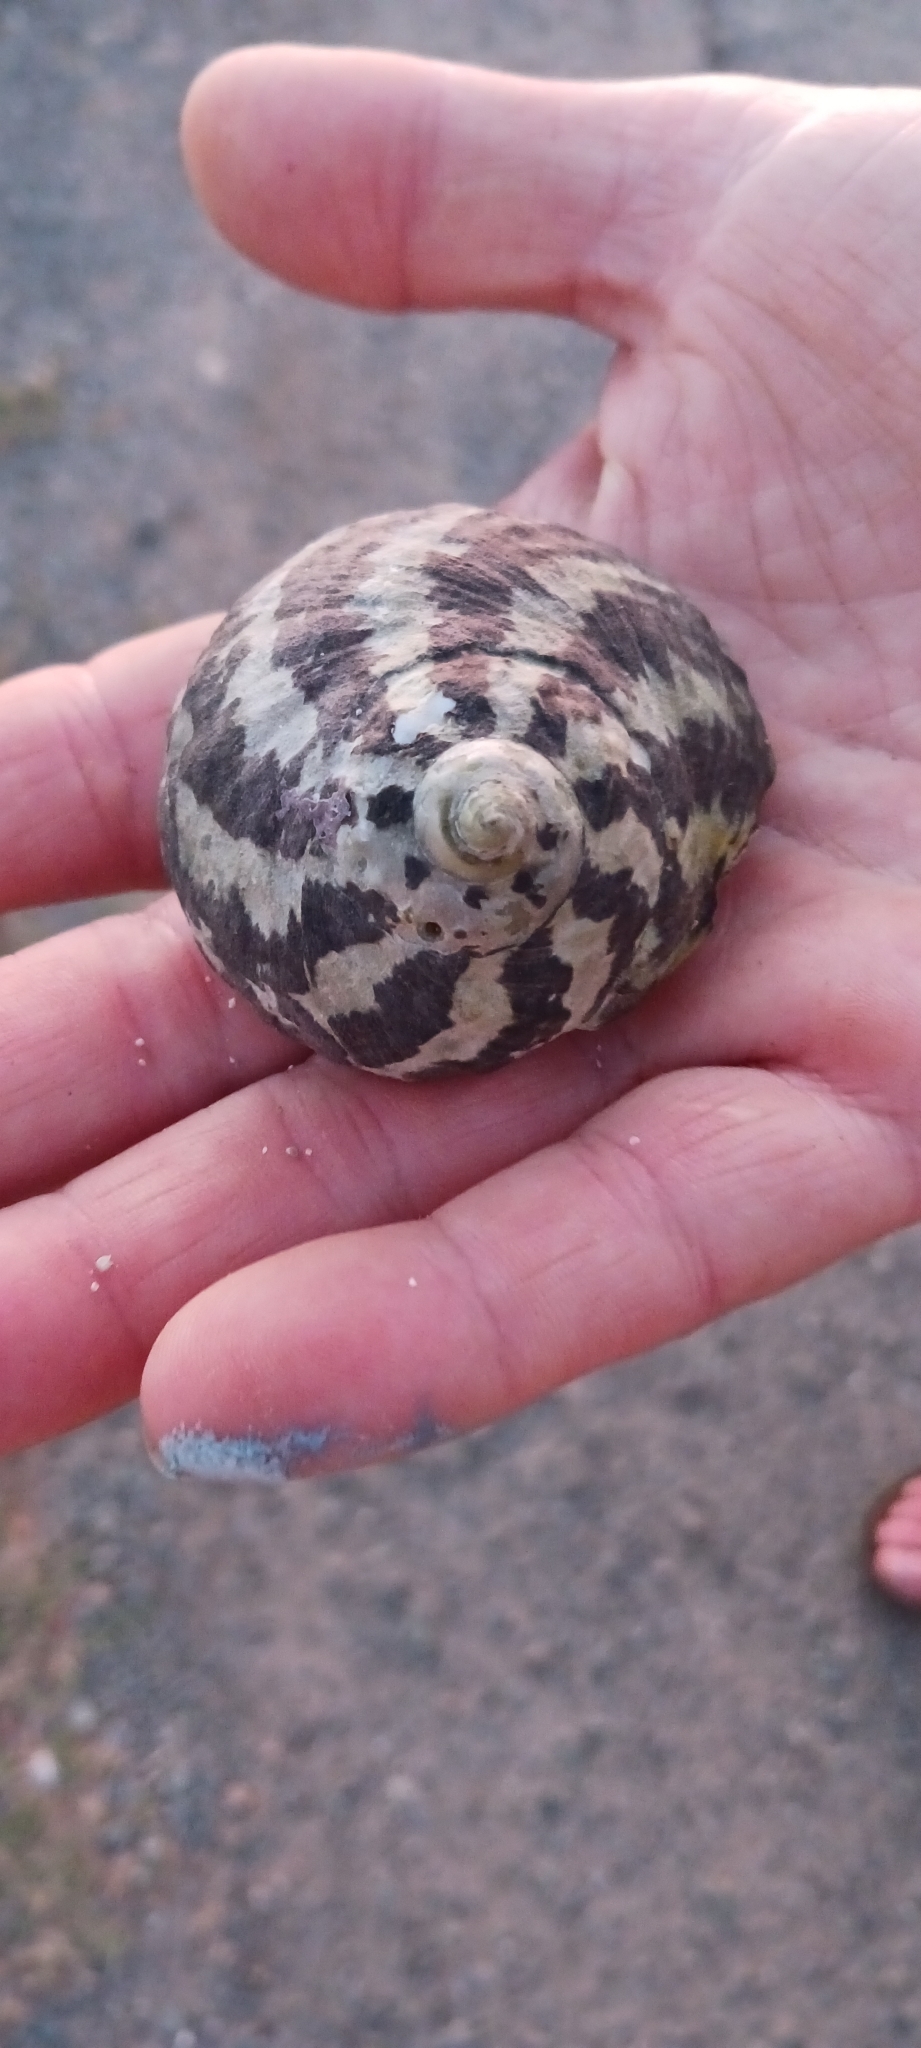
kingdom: Animalia
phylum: Mollusca
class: Gastropoda
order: Trochida
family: Tegulidae
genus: Cittarium
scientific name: Cittarium pica
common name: West indian topshell
